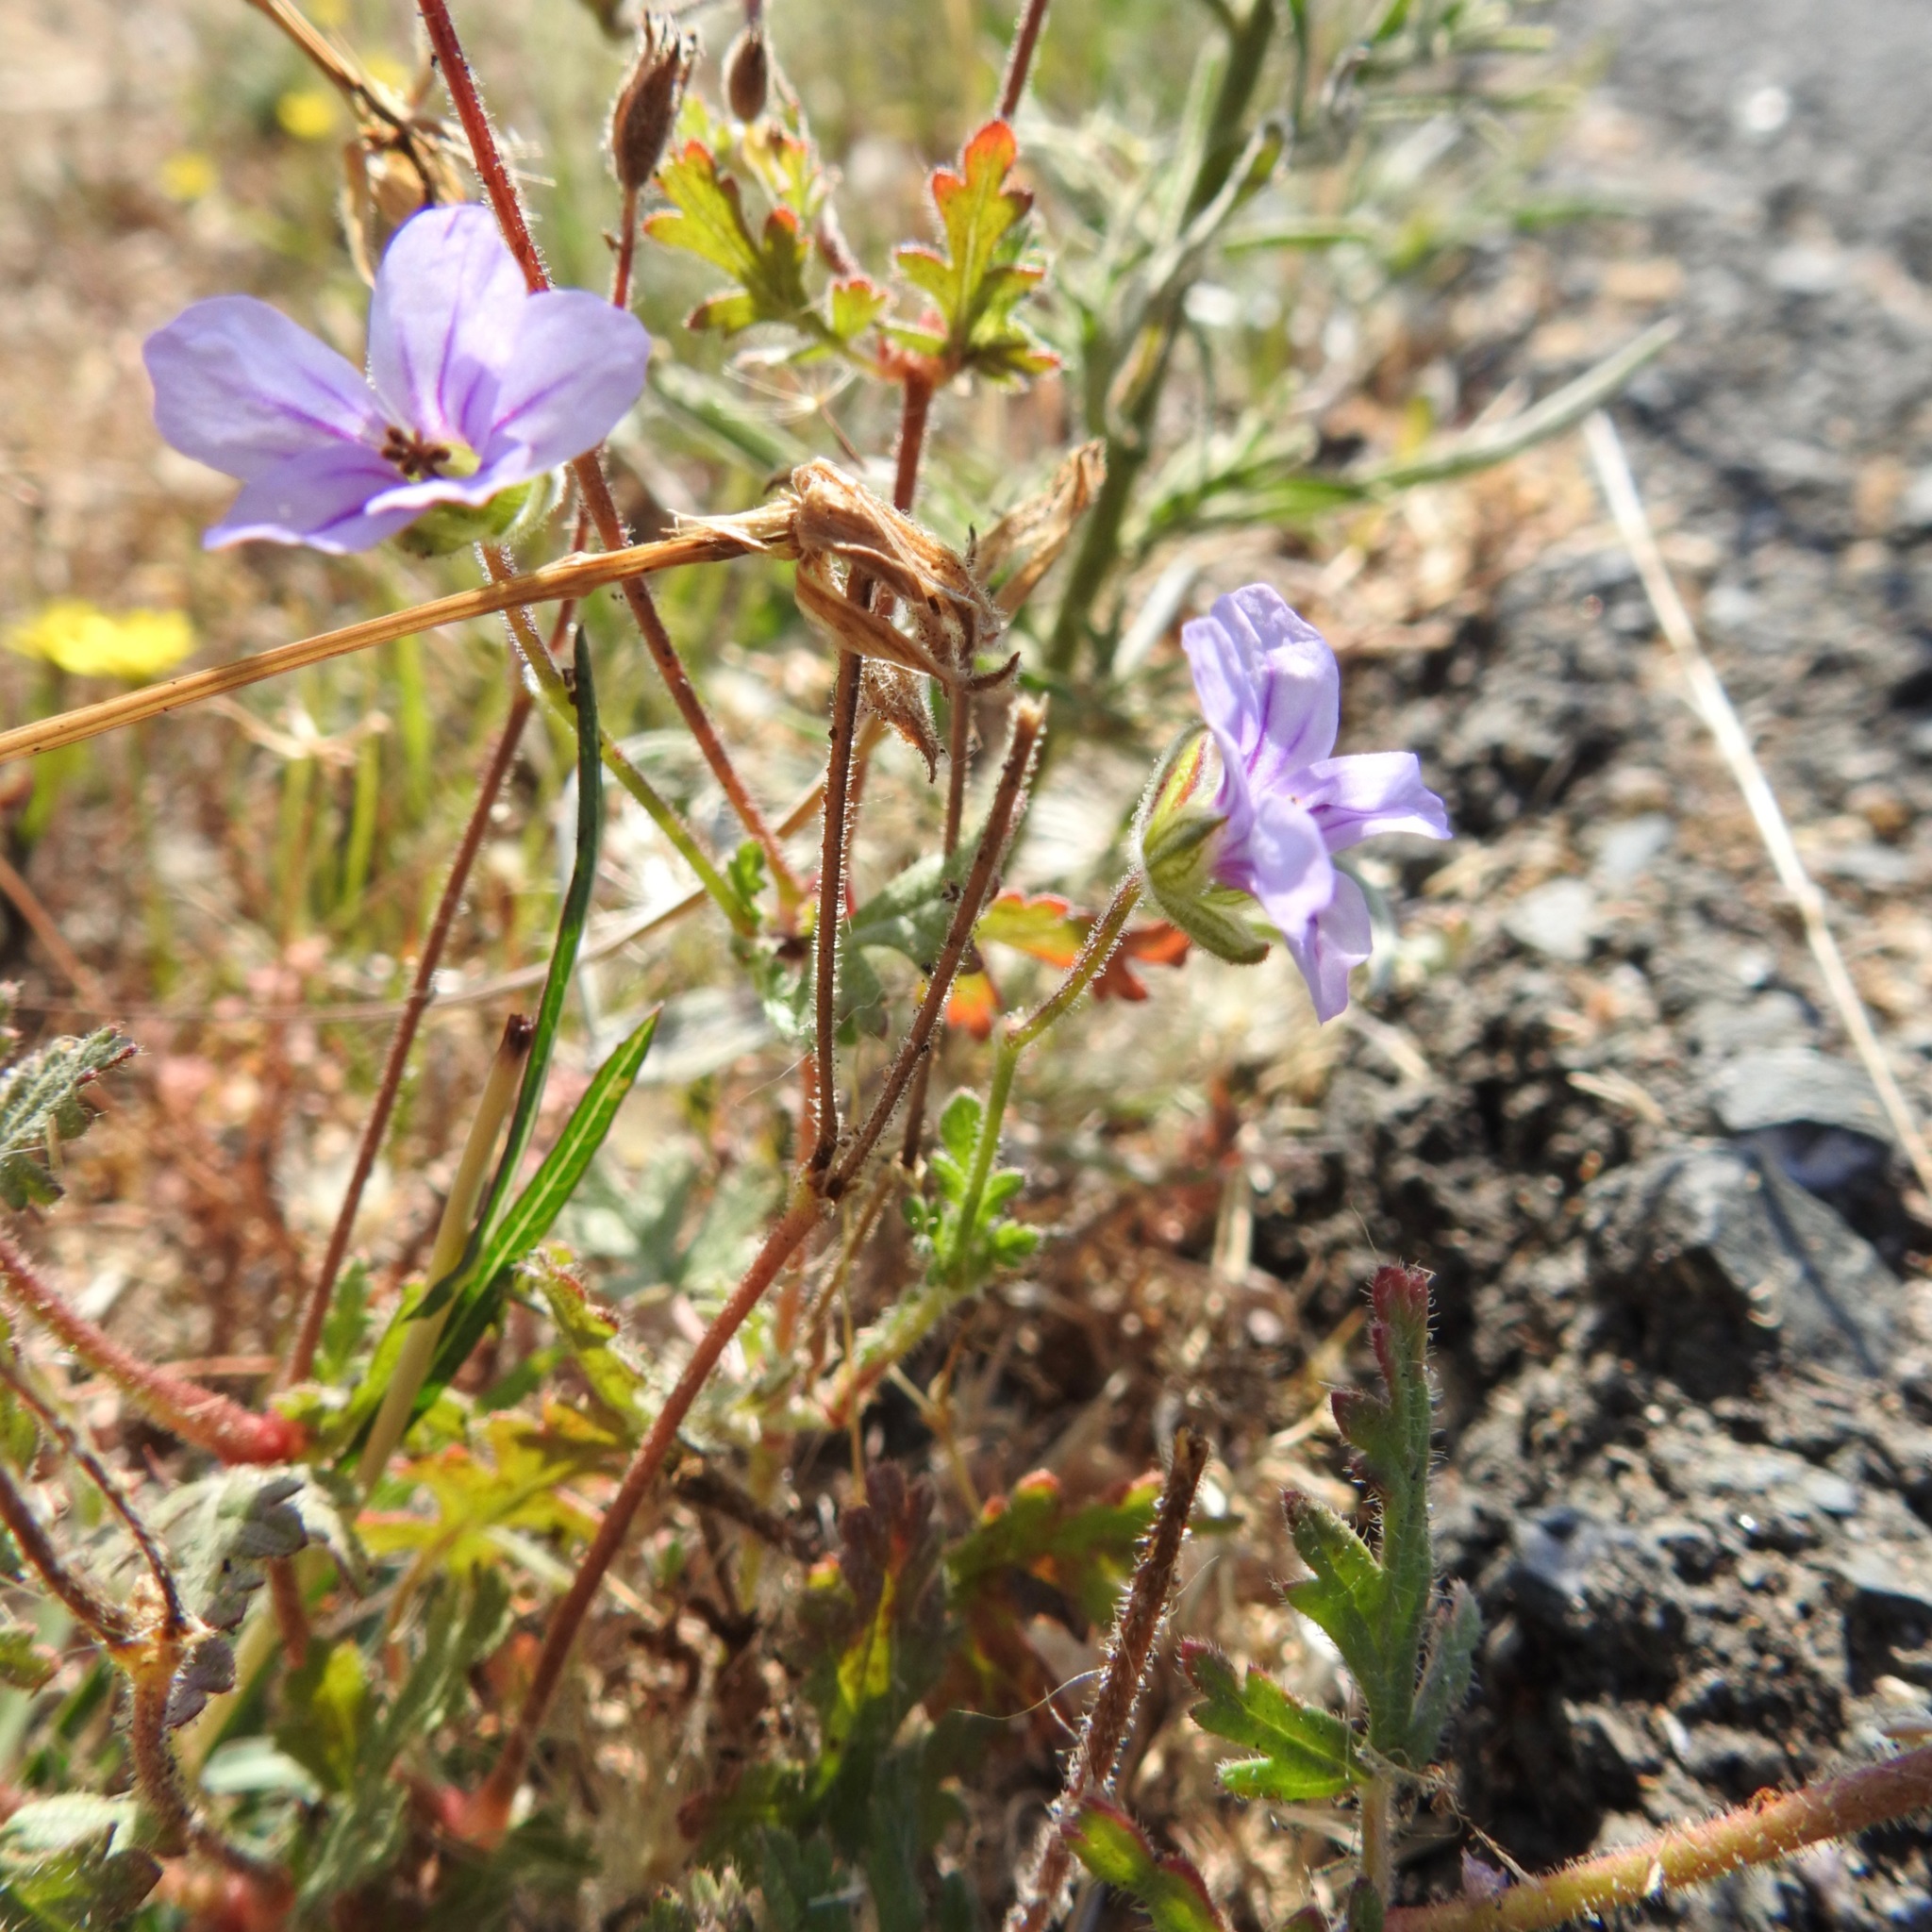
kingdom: Plantae
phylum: Tracheophyta
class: Magnoliopsida
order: Geraniales
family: Geraniaceae
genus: Erodium
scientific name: Erodium botrys
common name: Mediterranean stork's-bill
